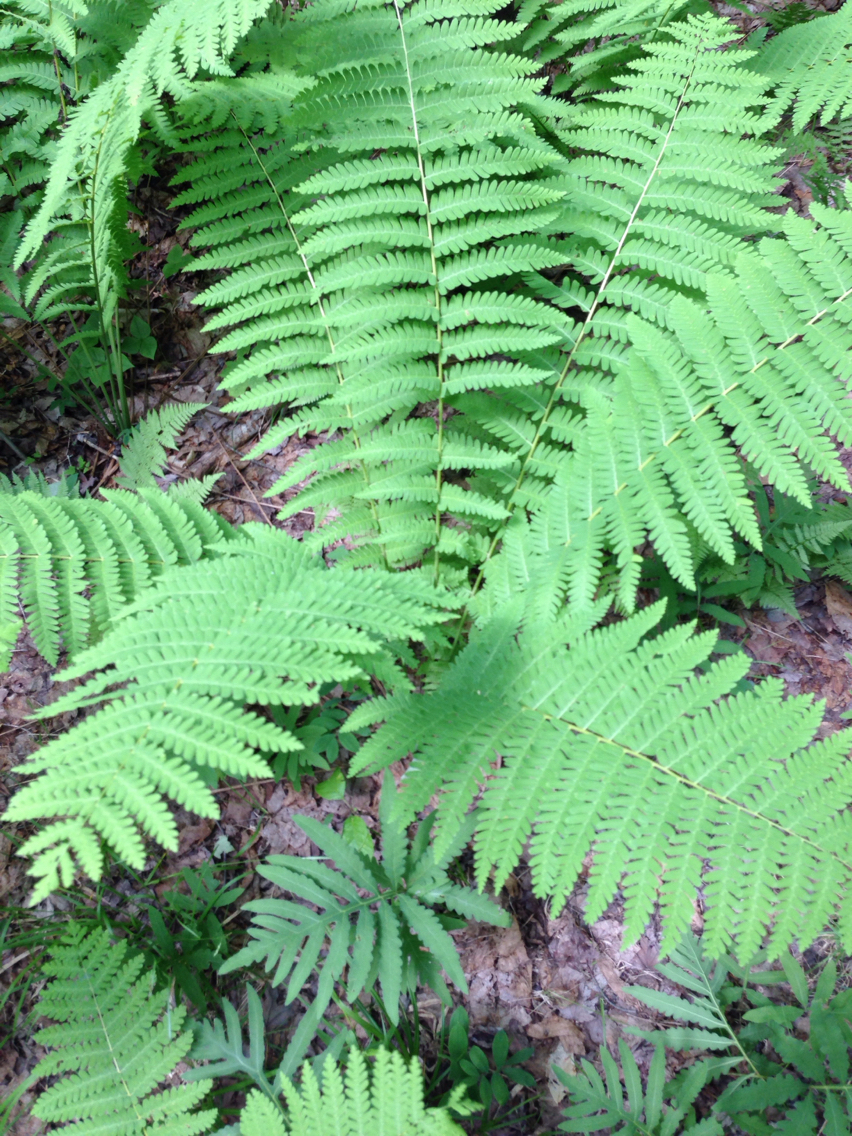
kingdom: Plantae
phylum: Tracheophyta
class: Polypodiopsida
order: Osmundales
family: Osmundaceae
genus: Claytosmunda
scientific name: Claytosmunda claytoniana
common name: Clayton's fern
